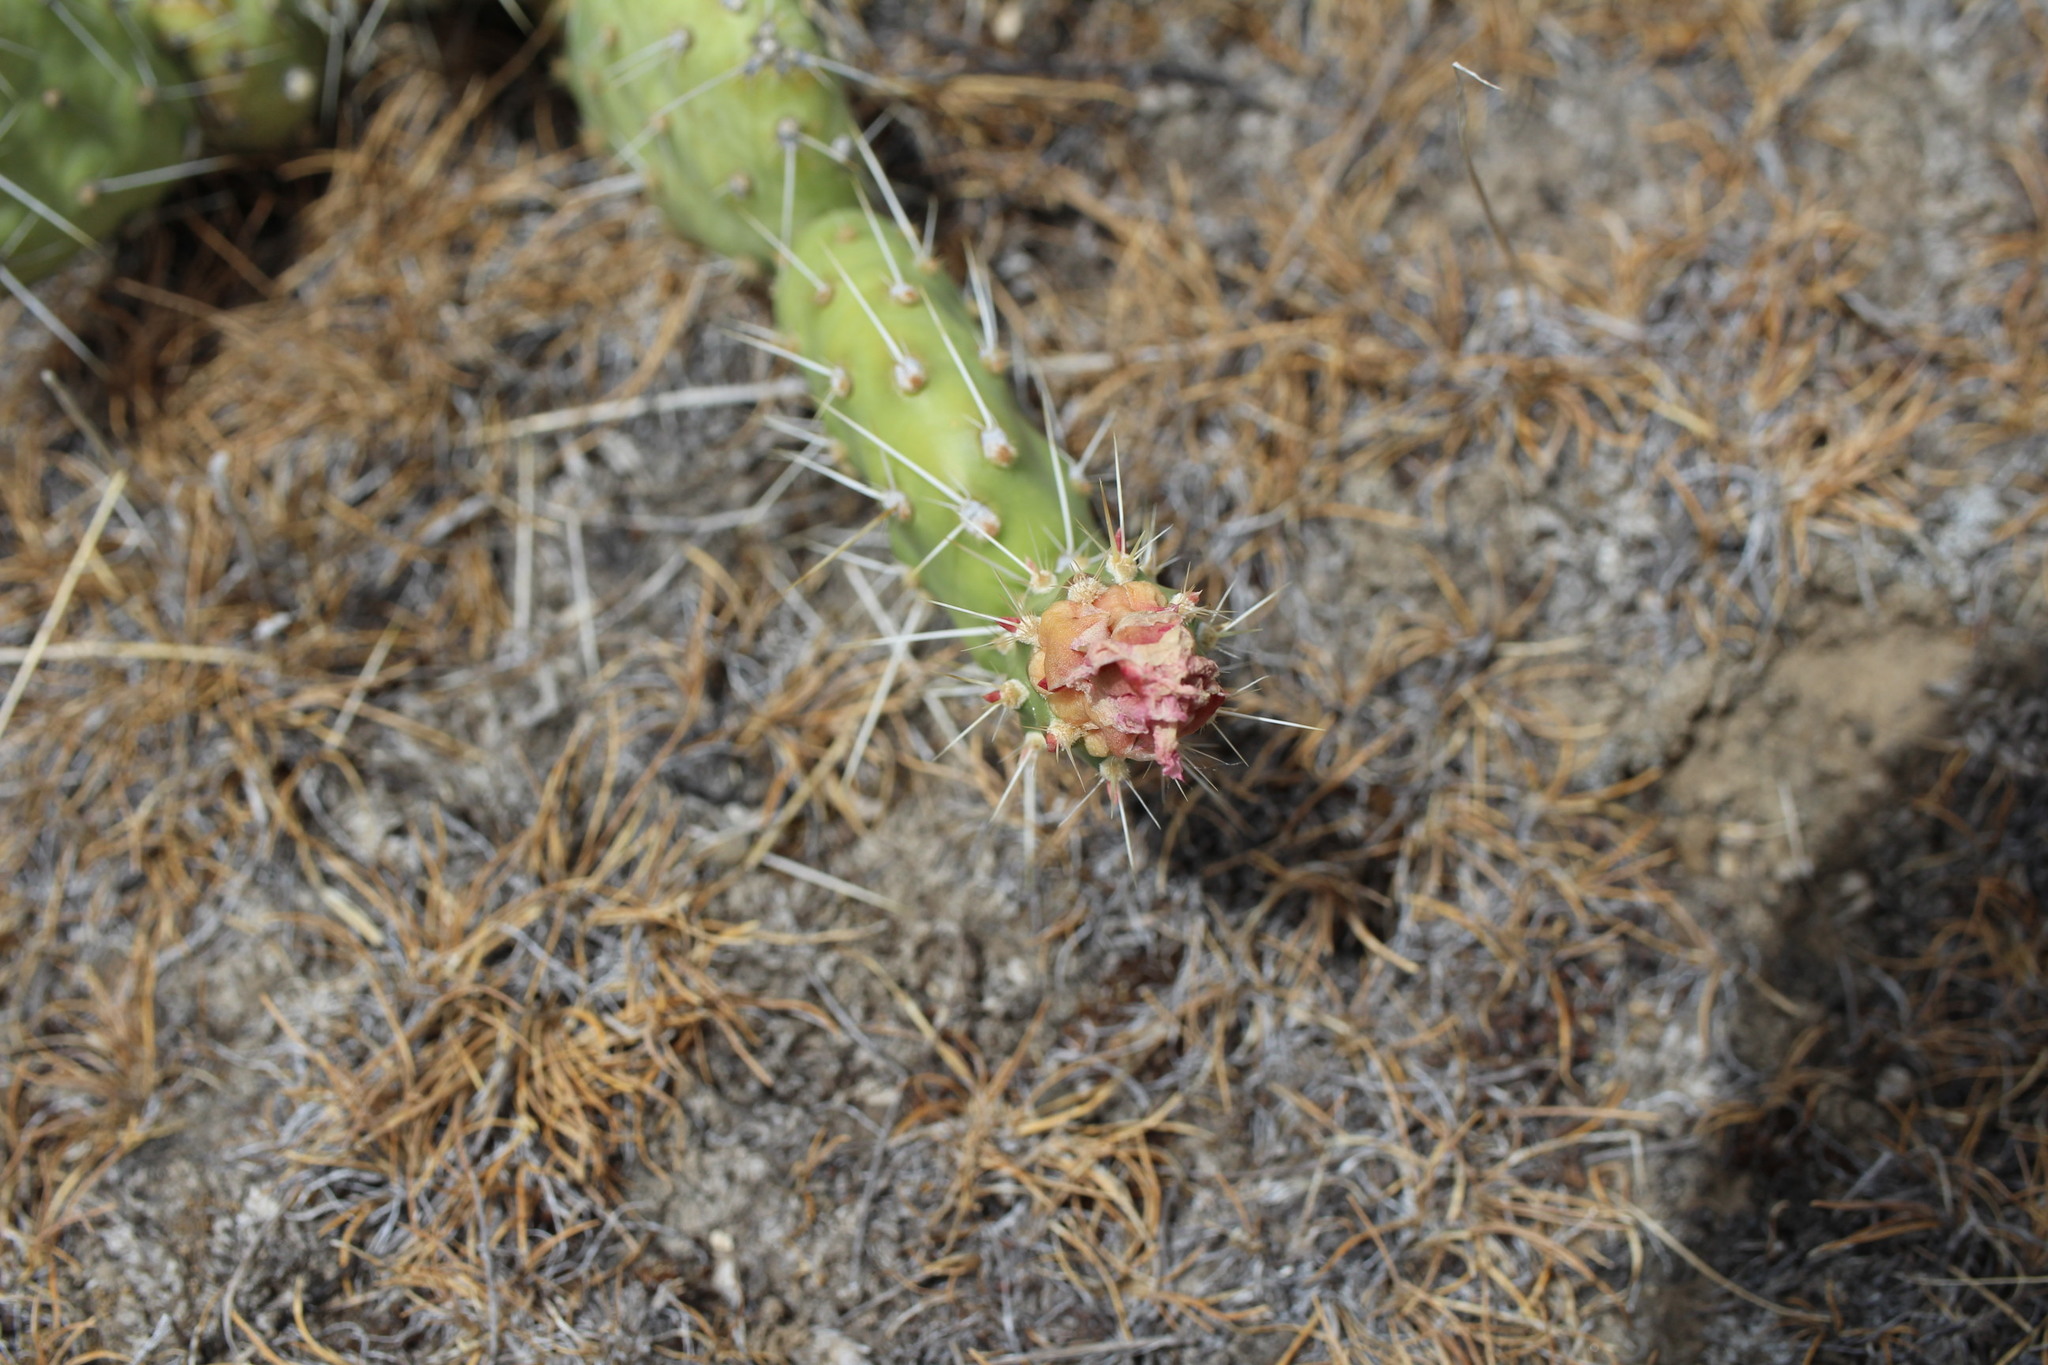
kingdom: Plantae
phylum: Tracheophyta
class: Magnoliopsida
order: Caryophyllales
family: Cactaceae
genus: Opuntia
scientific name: Opuntia columbiana
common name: Columbia prickly-pear
